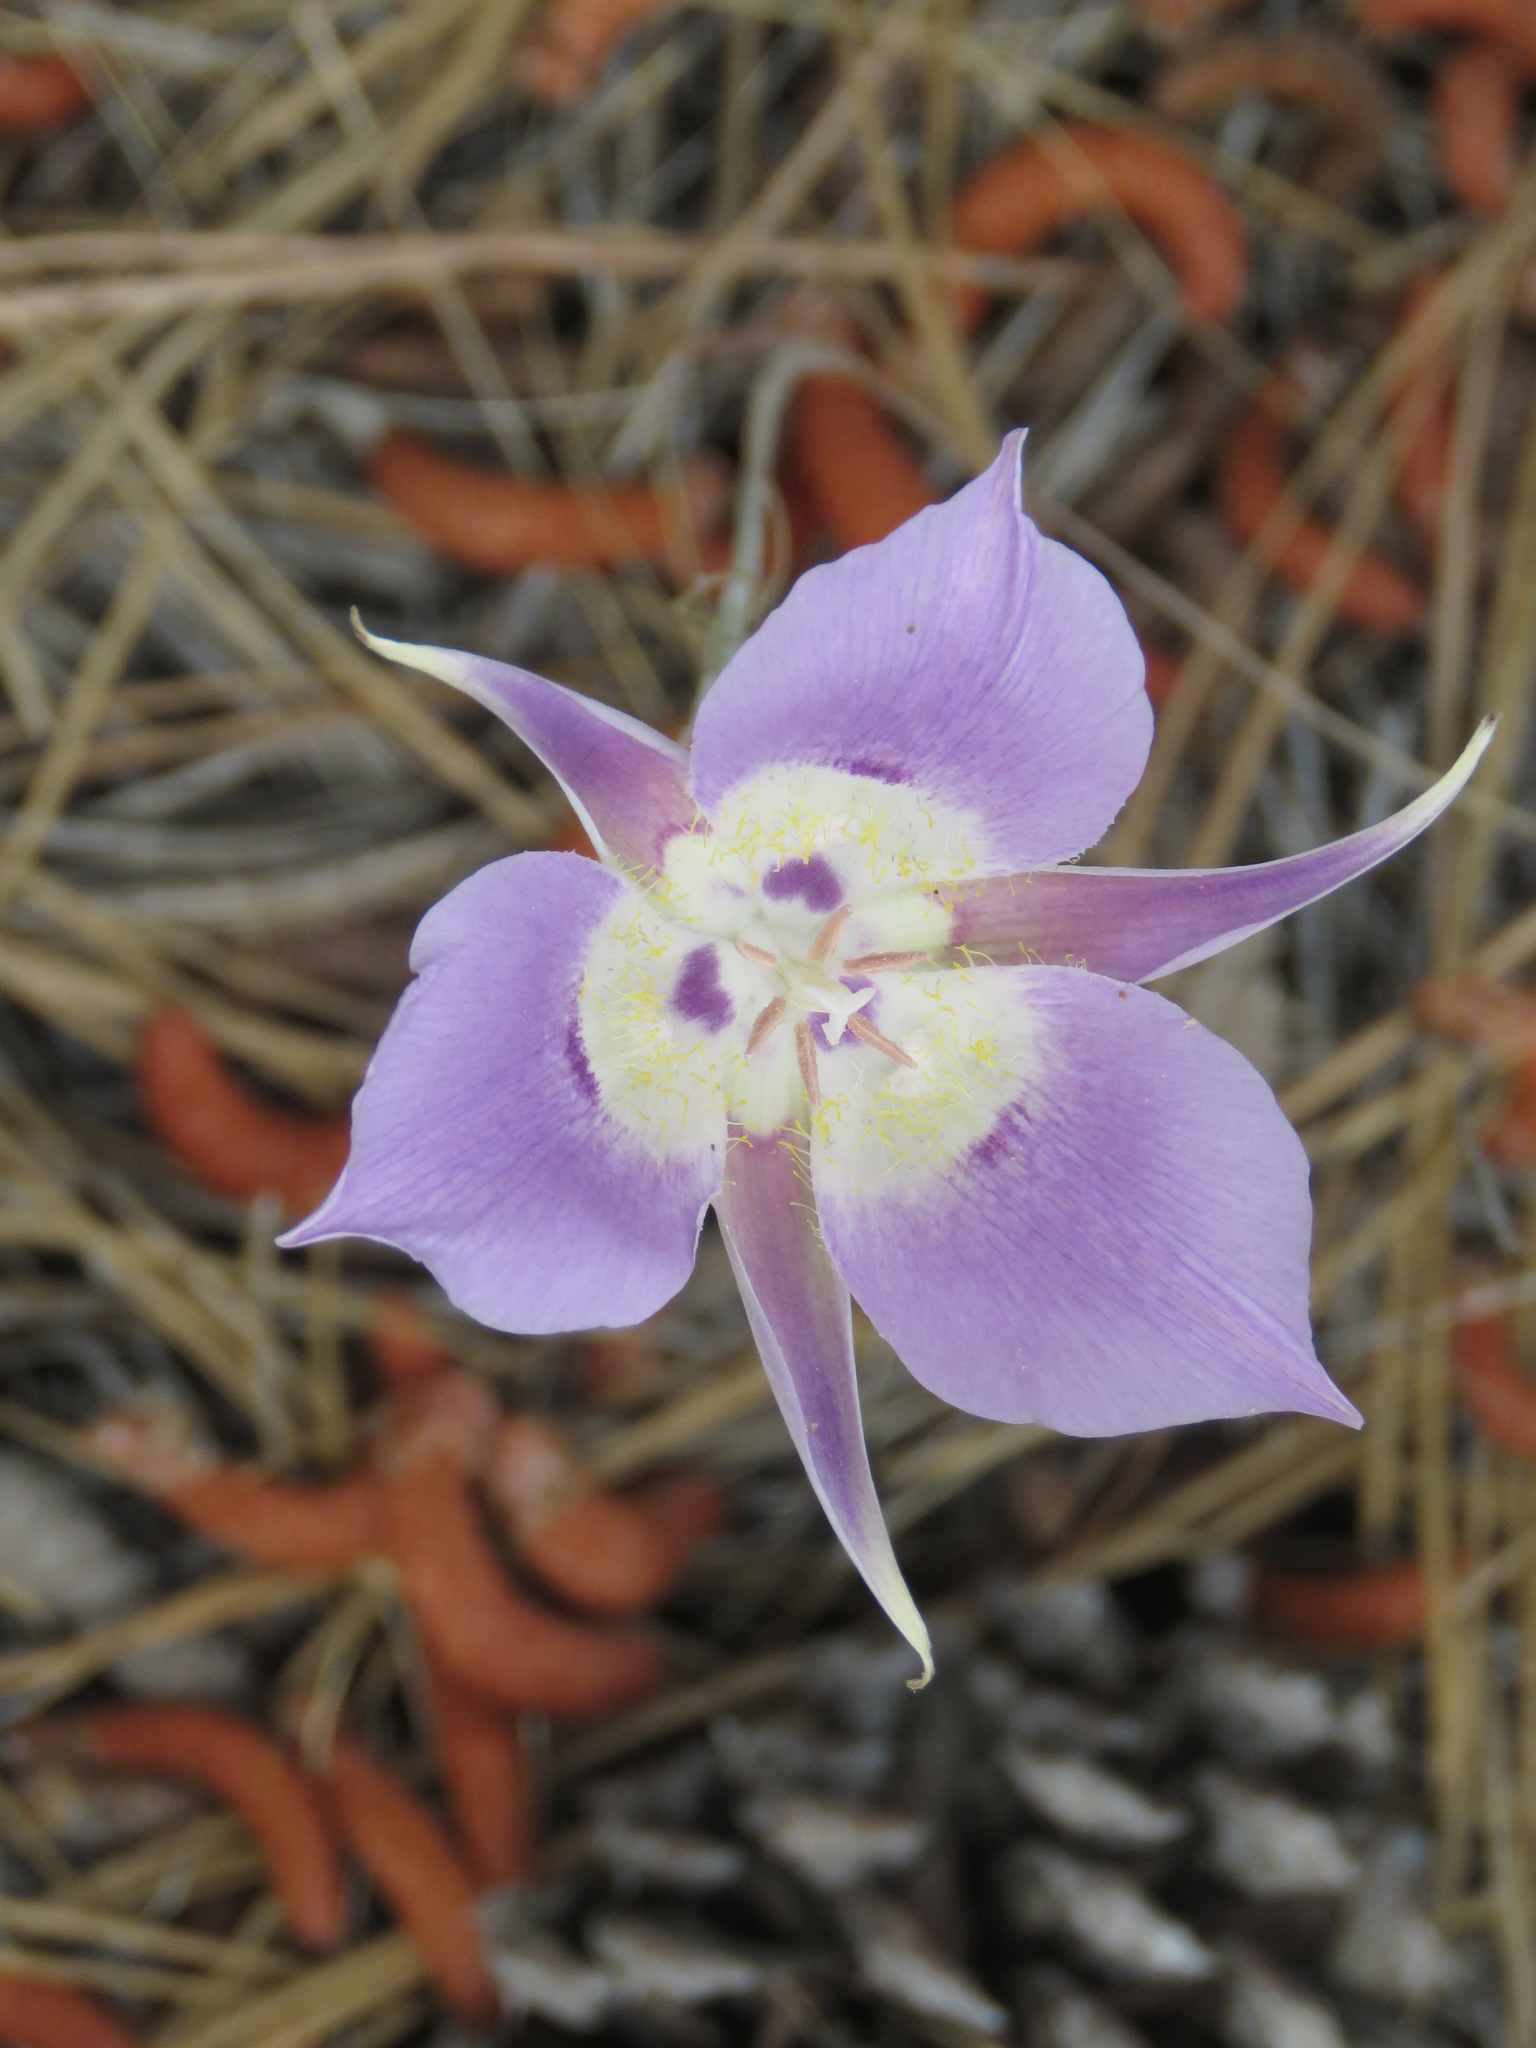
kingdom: Plantae
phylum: Tracheophyta
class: Liliopsida
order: Liliales
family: Liliaceae
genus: Calochortus
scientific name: Calochortus macrocarpus
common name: Green-band mariposa lily
